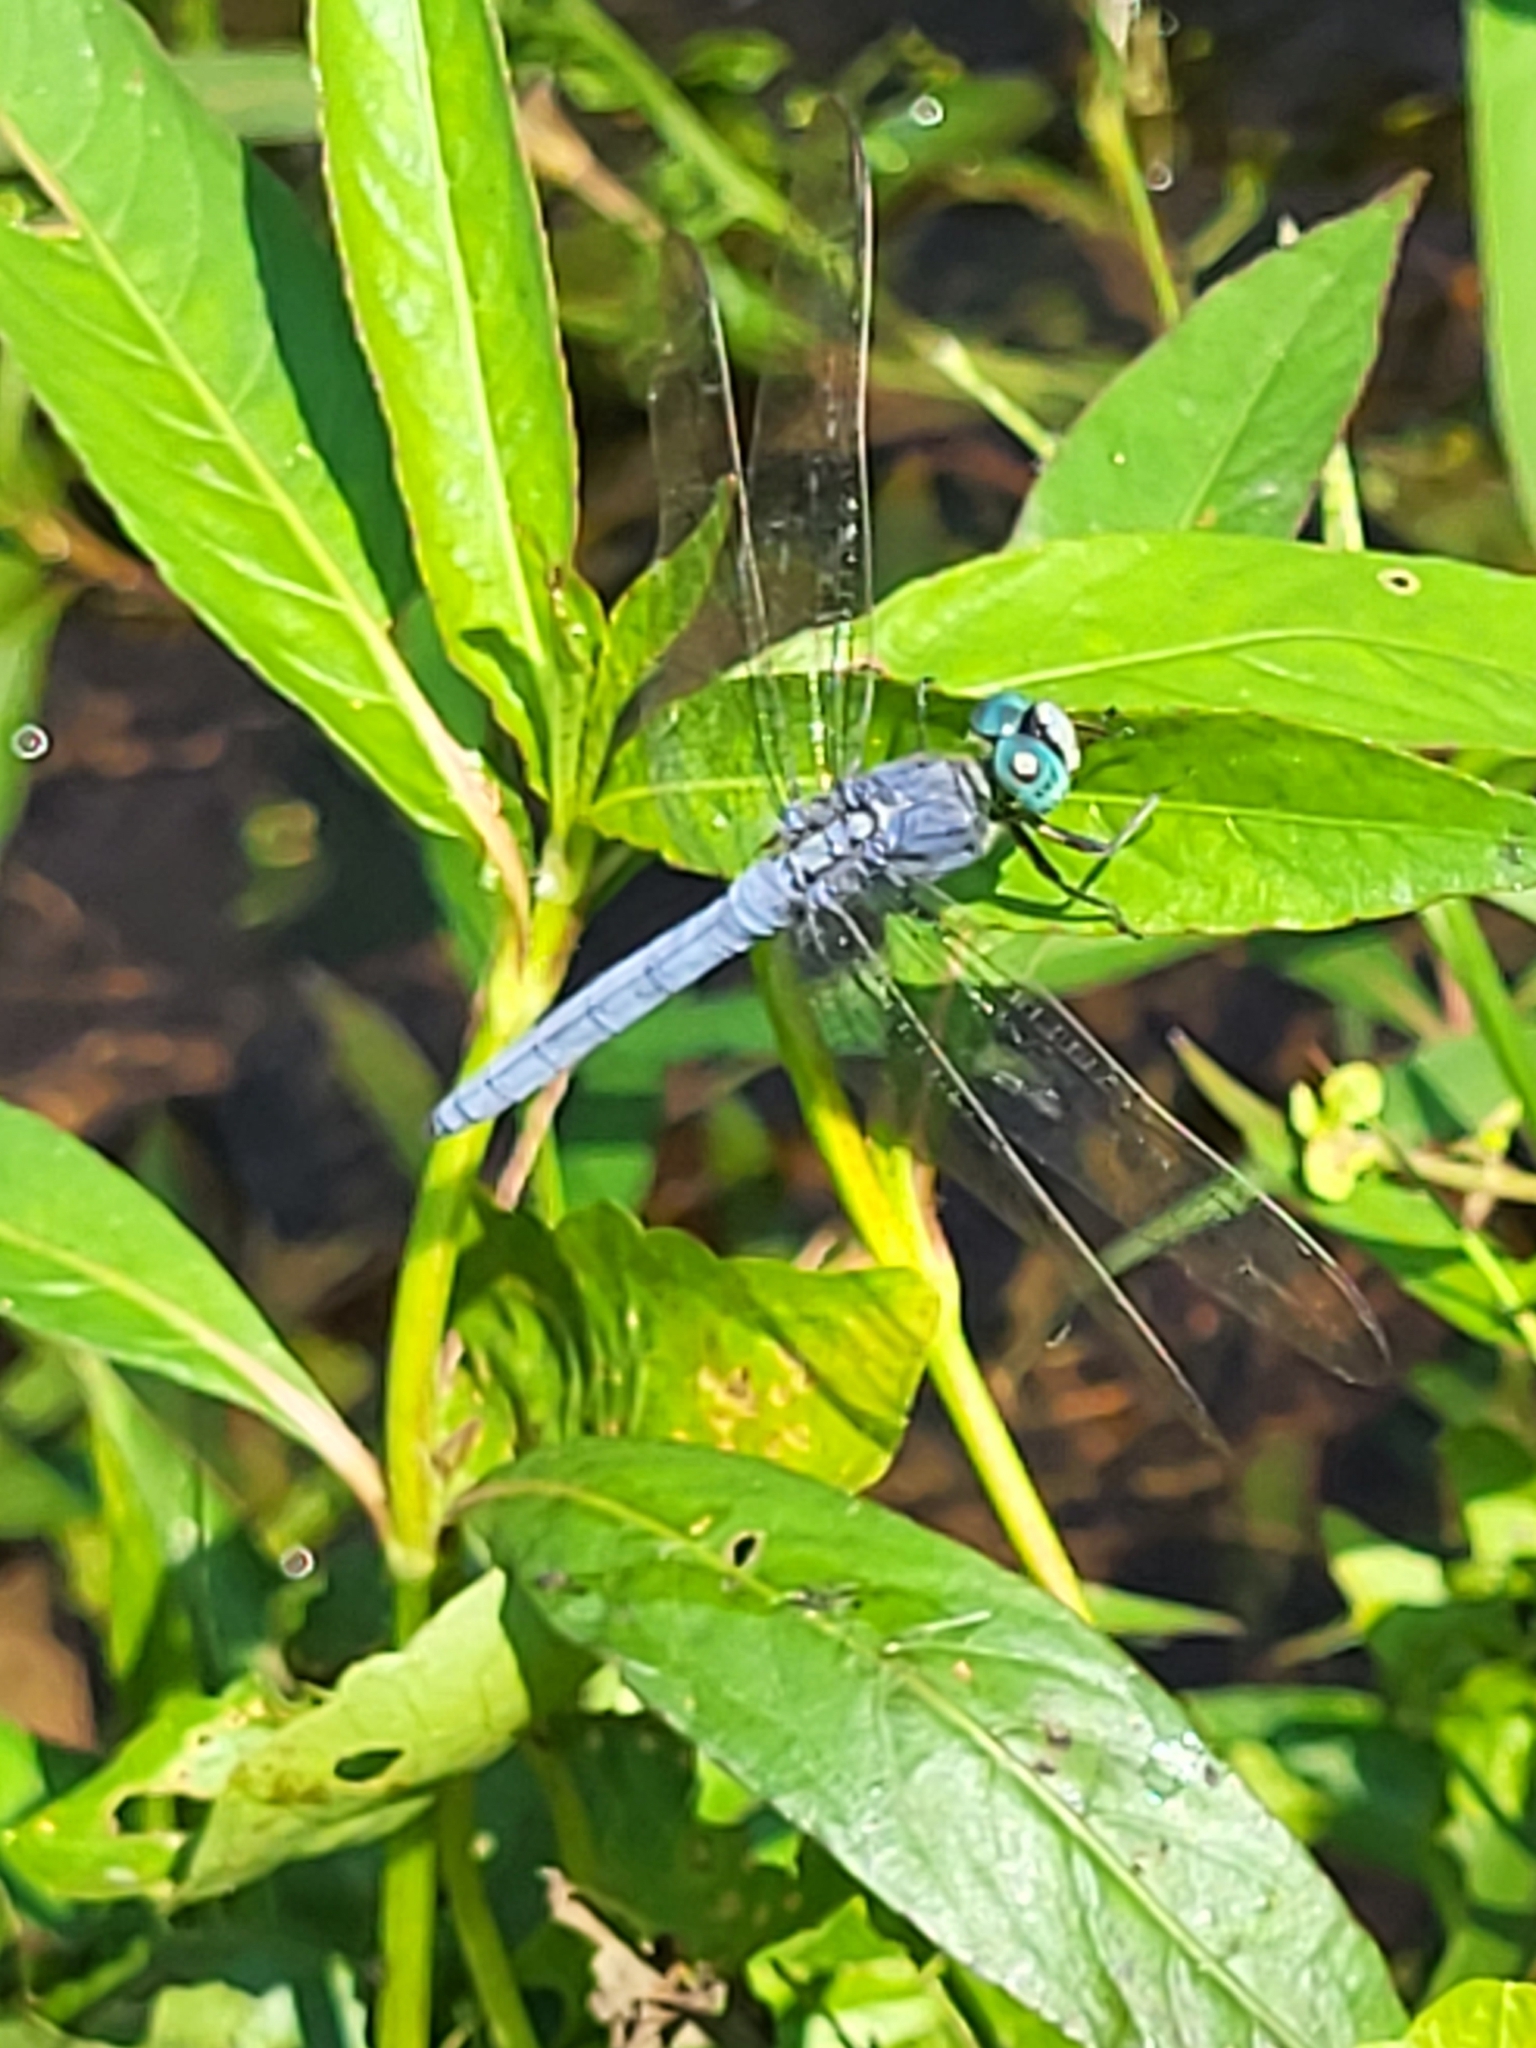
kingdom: Animalia
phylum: Arthropoda
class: Insecta
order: Odonata
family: Libellulidae
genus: Orthetrum
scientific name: Orthetrum luzonicum
